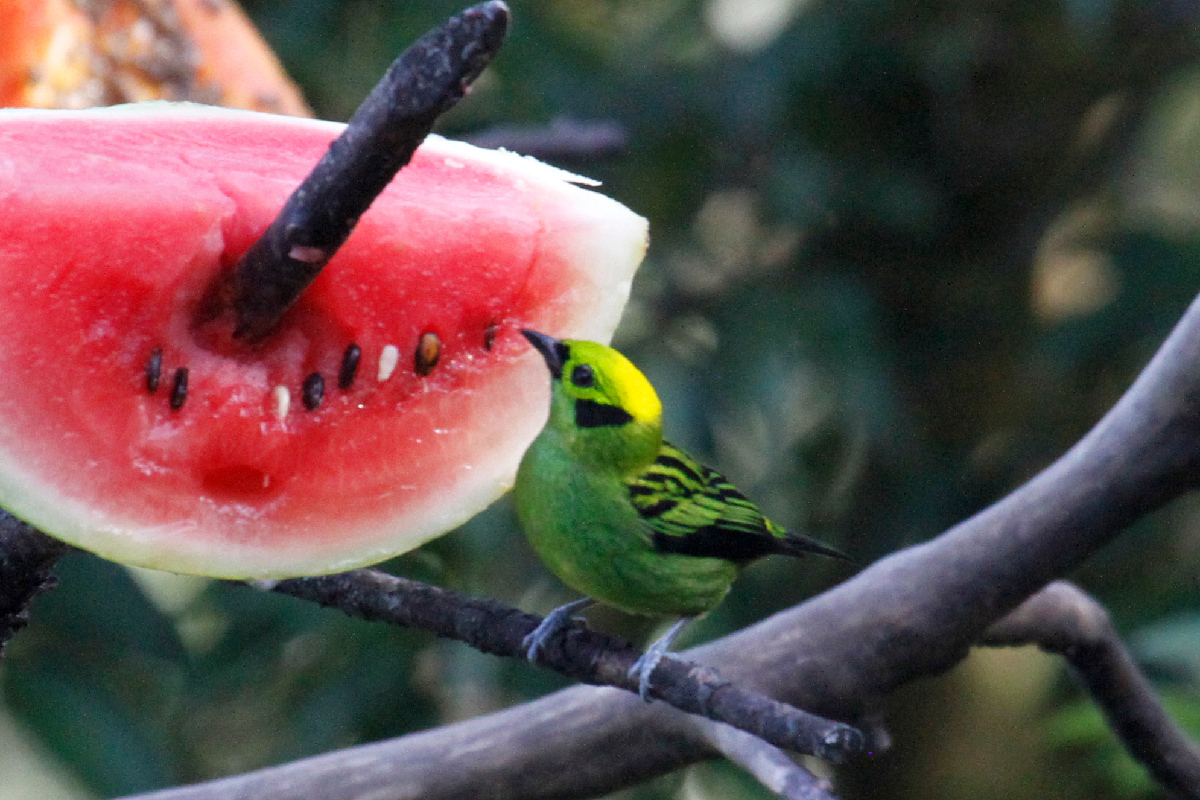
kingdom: Animalia
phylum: Chordata
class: Aves
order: Passeriformes
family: Thraupidae
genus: Tangara
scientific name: Tangara florida
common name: Emerald tanager
